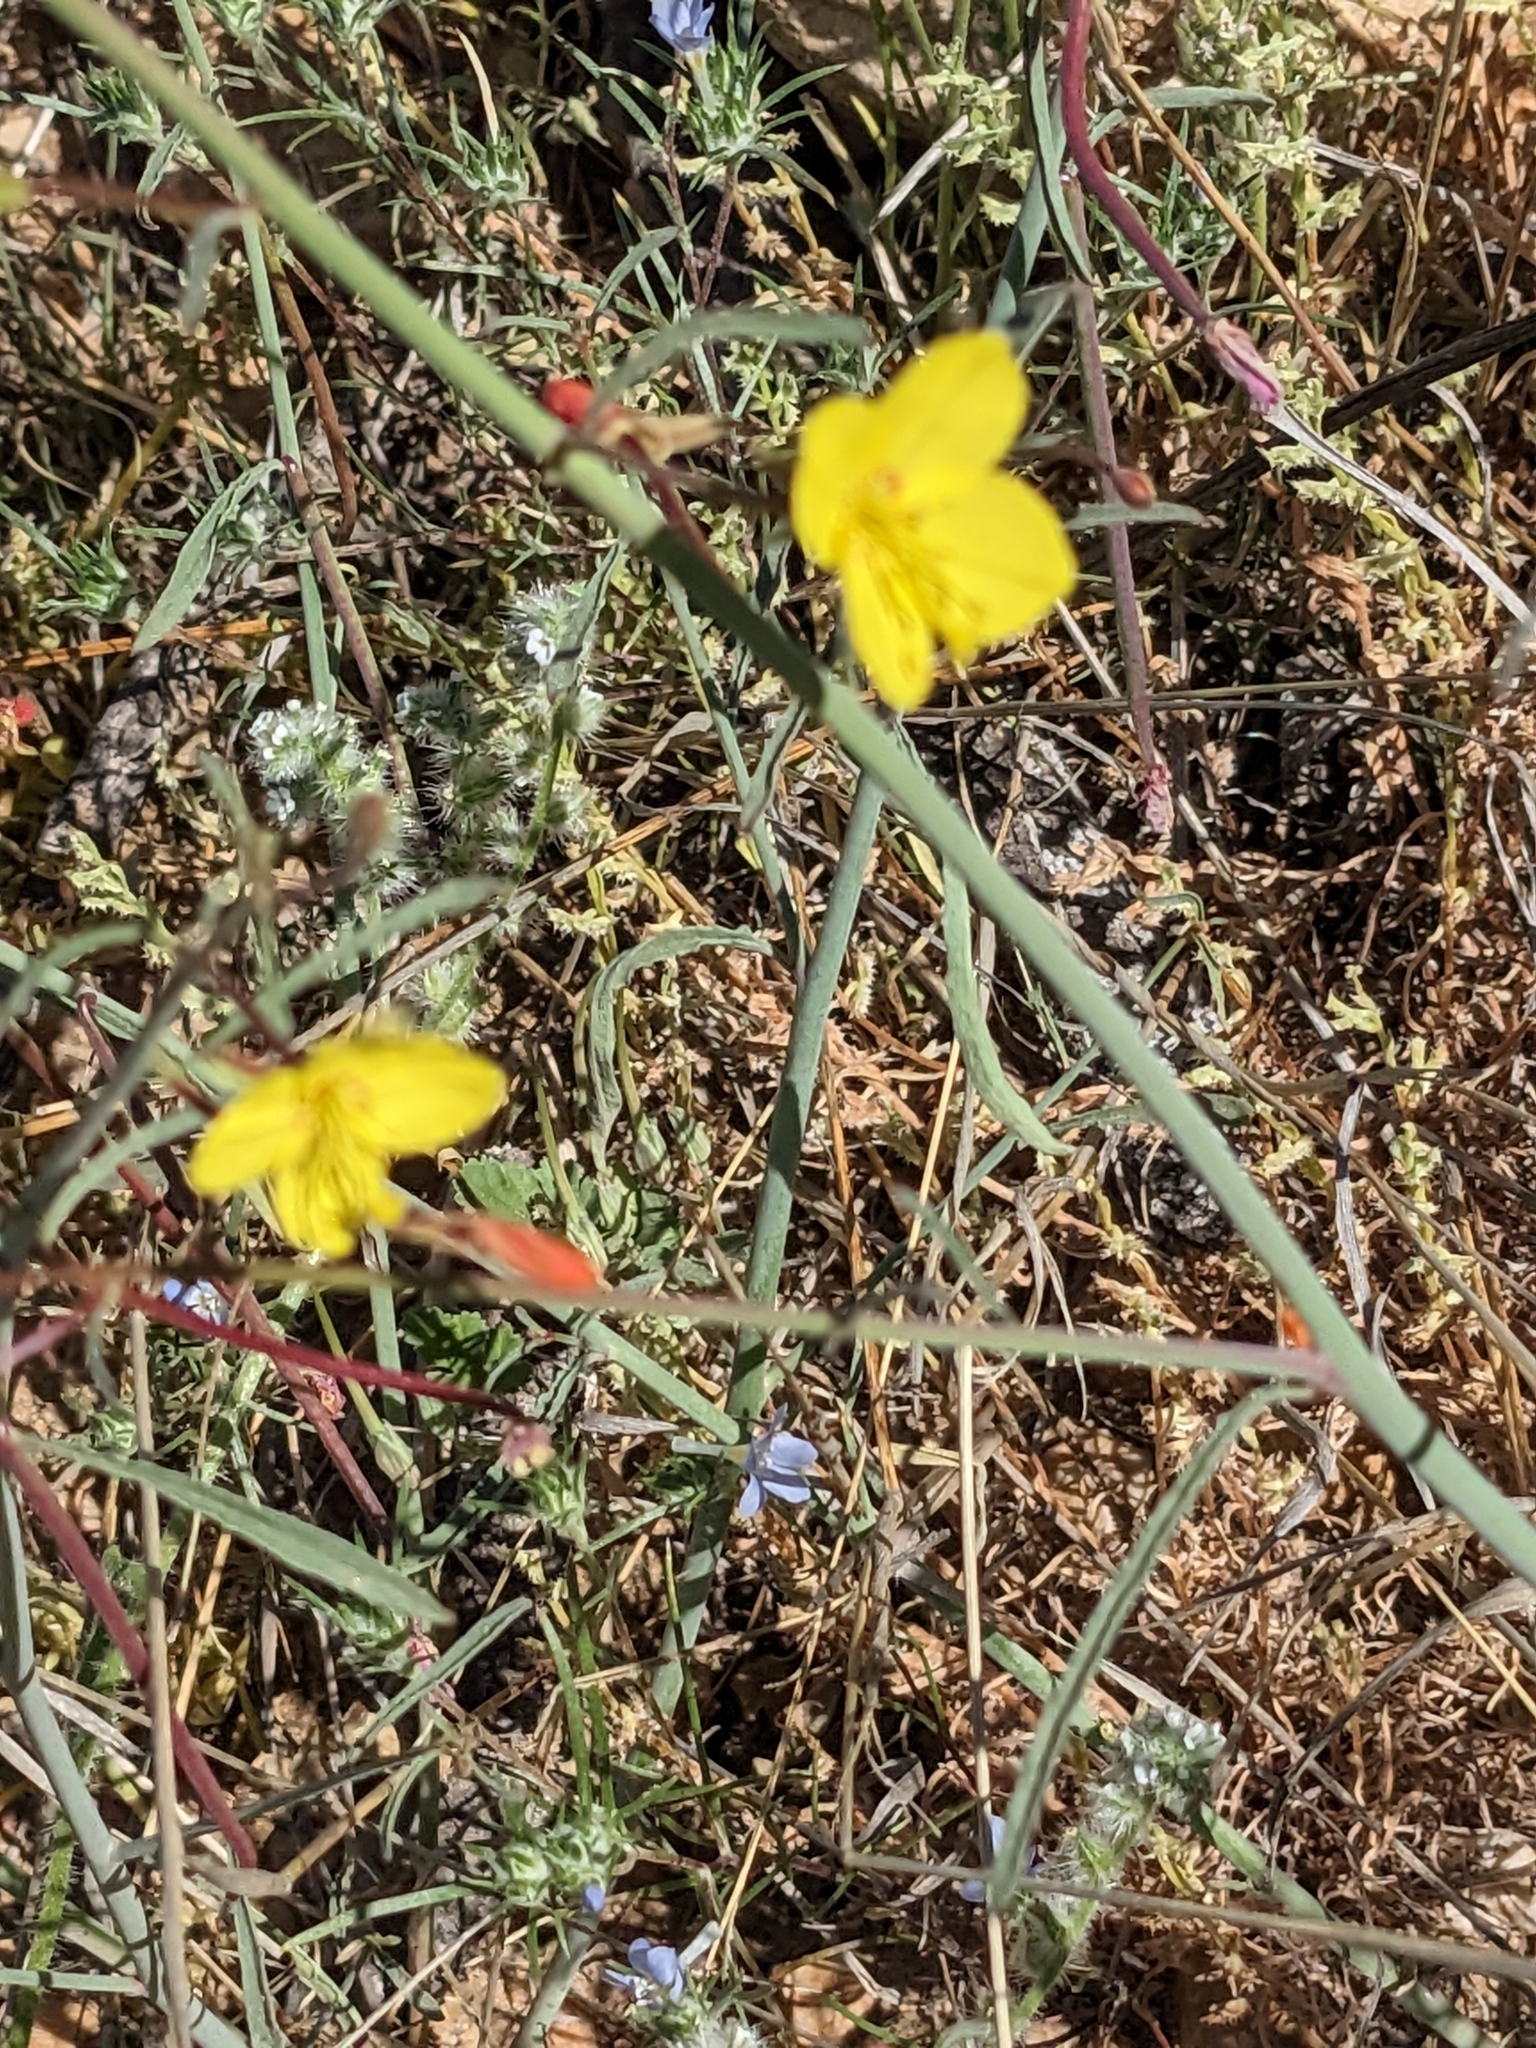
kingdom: Plantae
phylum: Tracheophyta
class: Magnoliopsida
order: Myrtales
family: Onagraceae
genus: Eulobus
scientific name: Eulobus californicus
